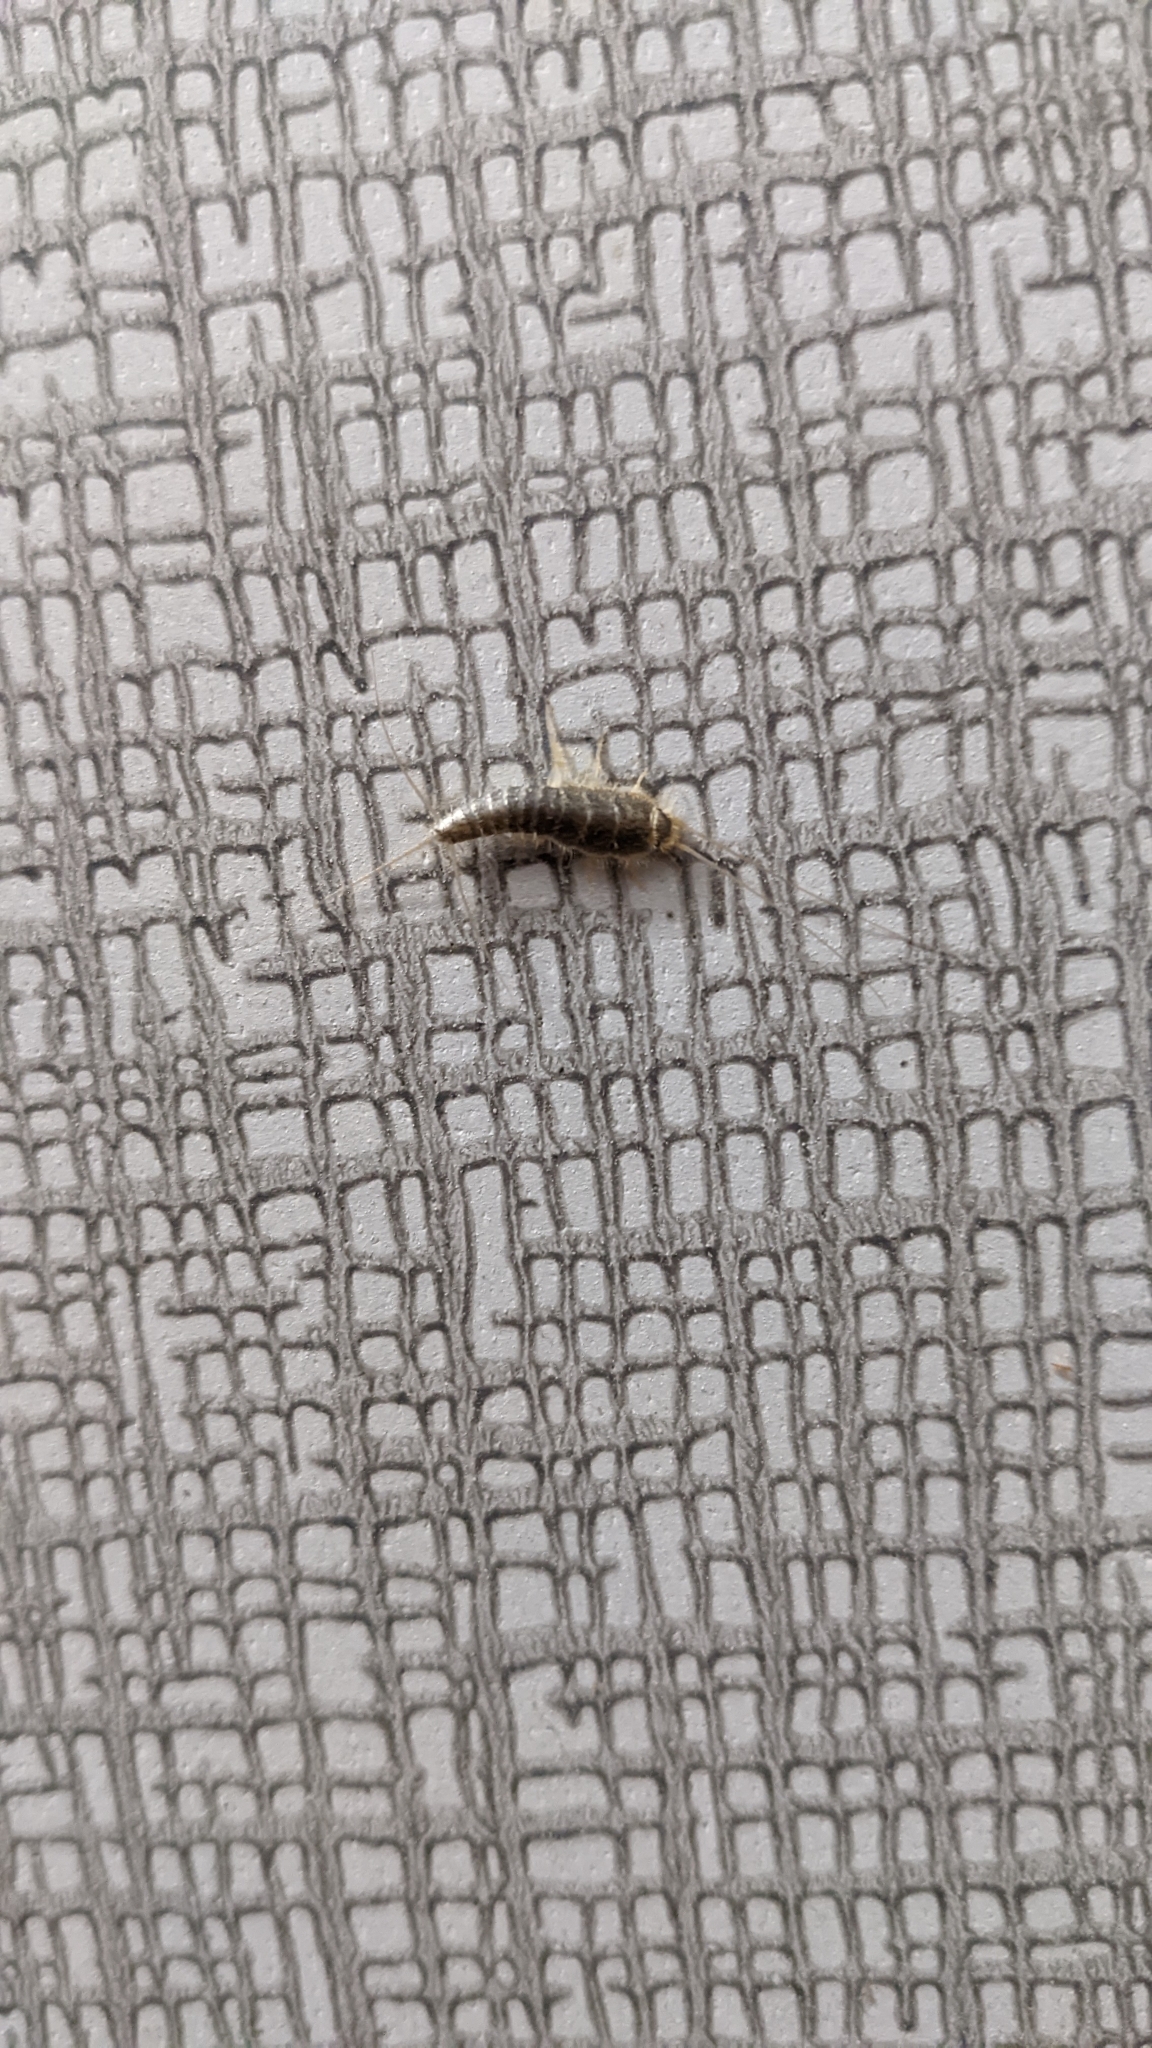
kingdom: Animalia
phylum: Arthropoda
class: Insecta
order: Zygentoma
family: Lepismatidae
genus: Ctenolepisma
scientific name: Ctenolepisma longicaudatum
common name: Silverfish
